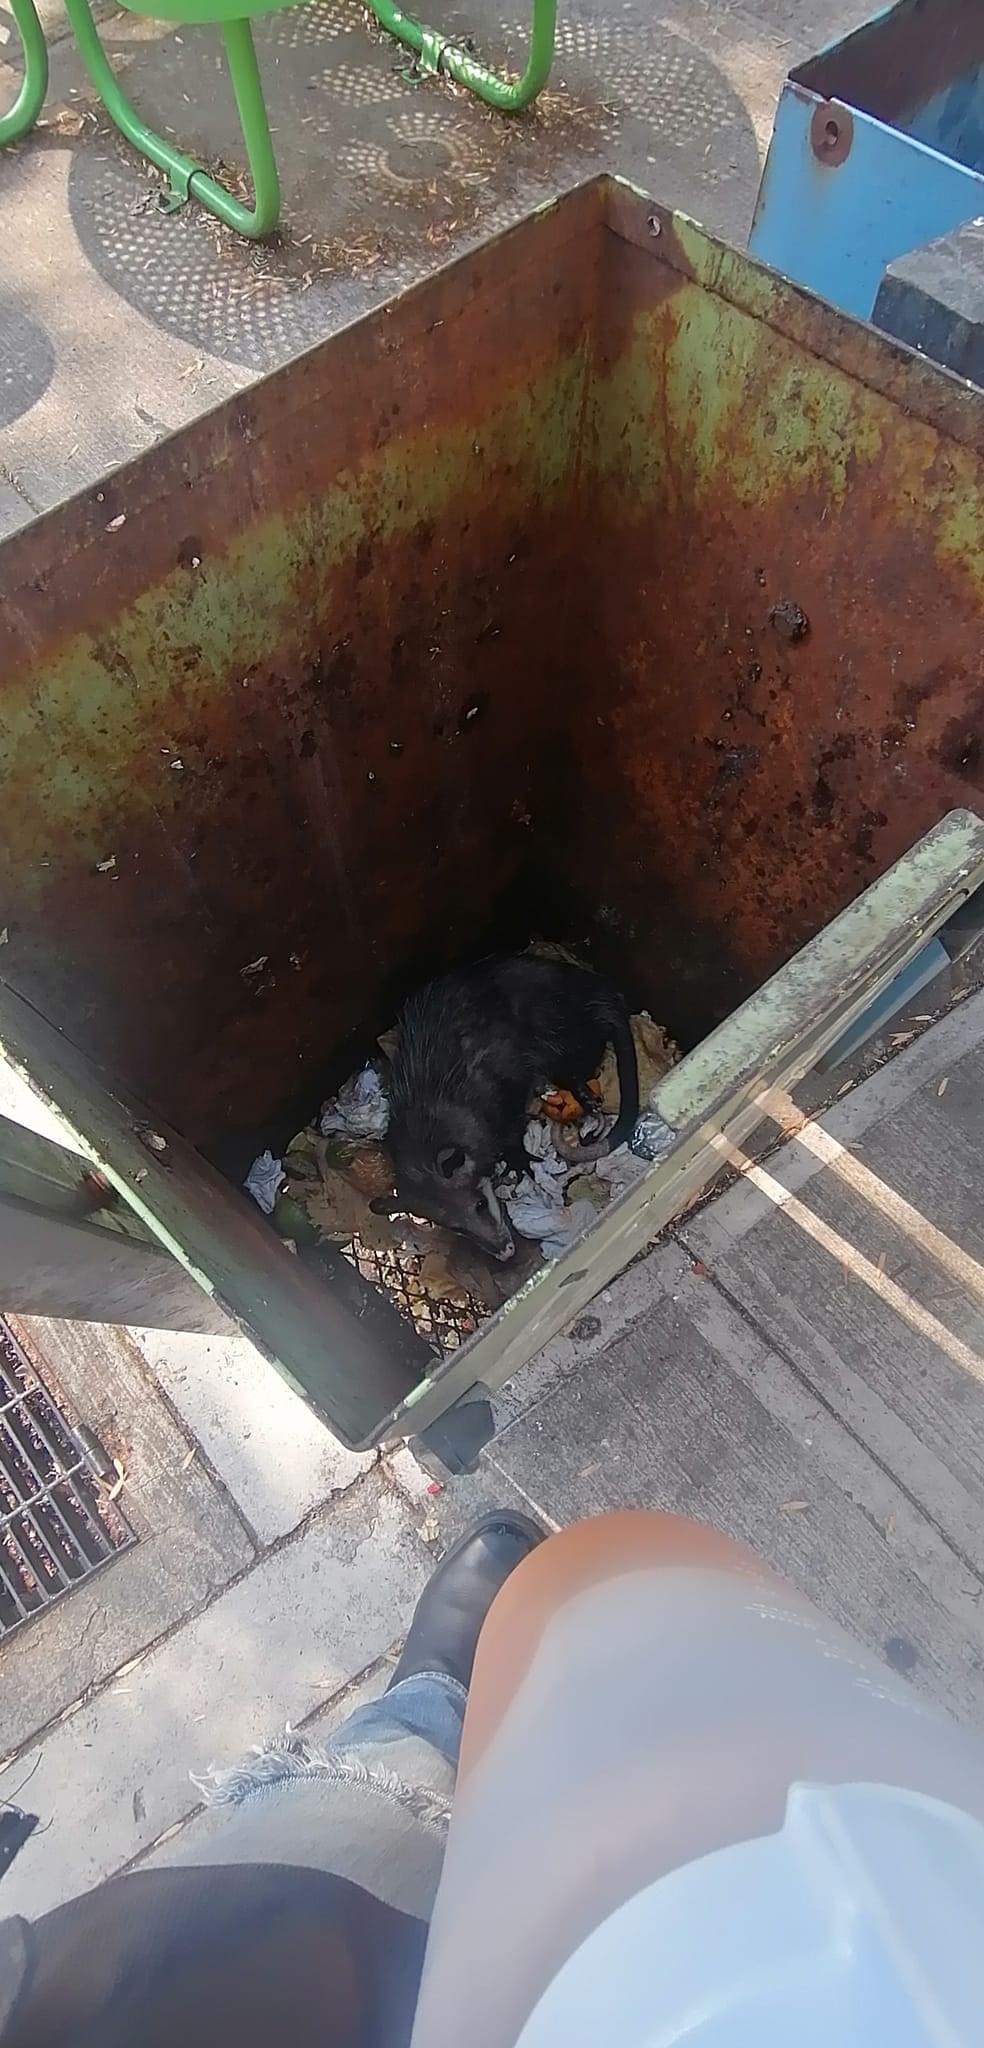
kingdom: Animalia
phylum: Chordata
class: Mammalia
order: Didelphimorphia
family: Didelphidae
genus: Didelphis
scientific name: Didelphis virginiana
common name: Virginia opossum
